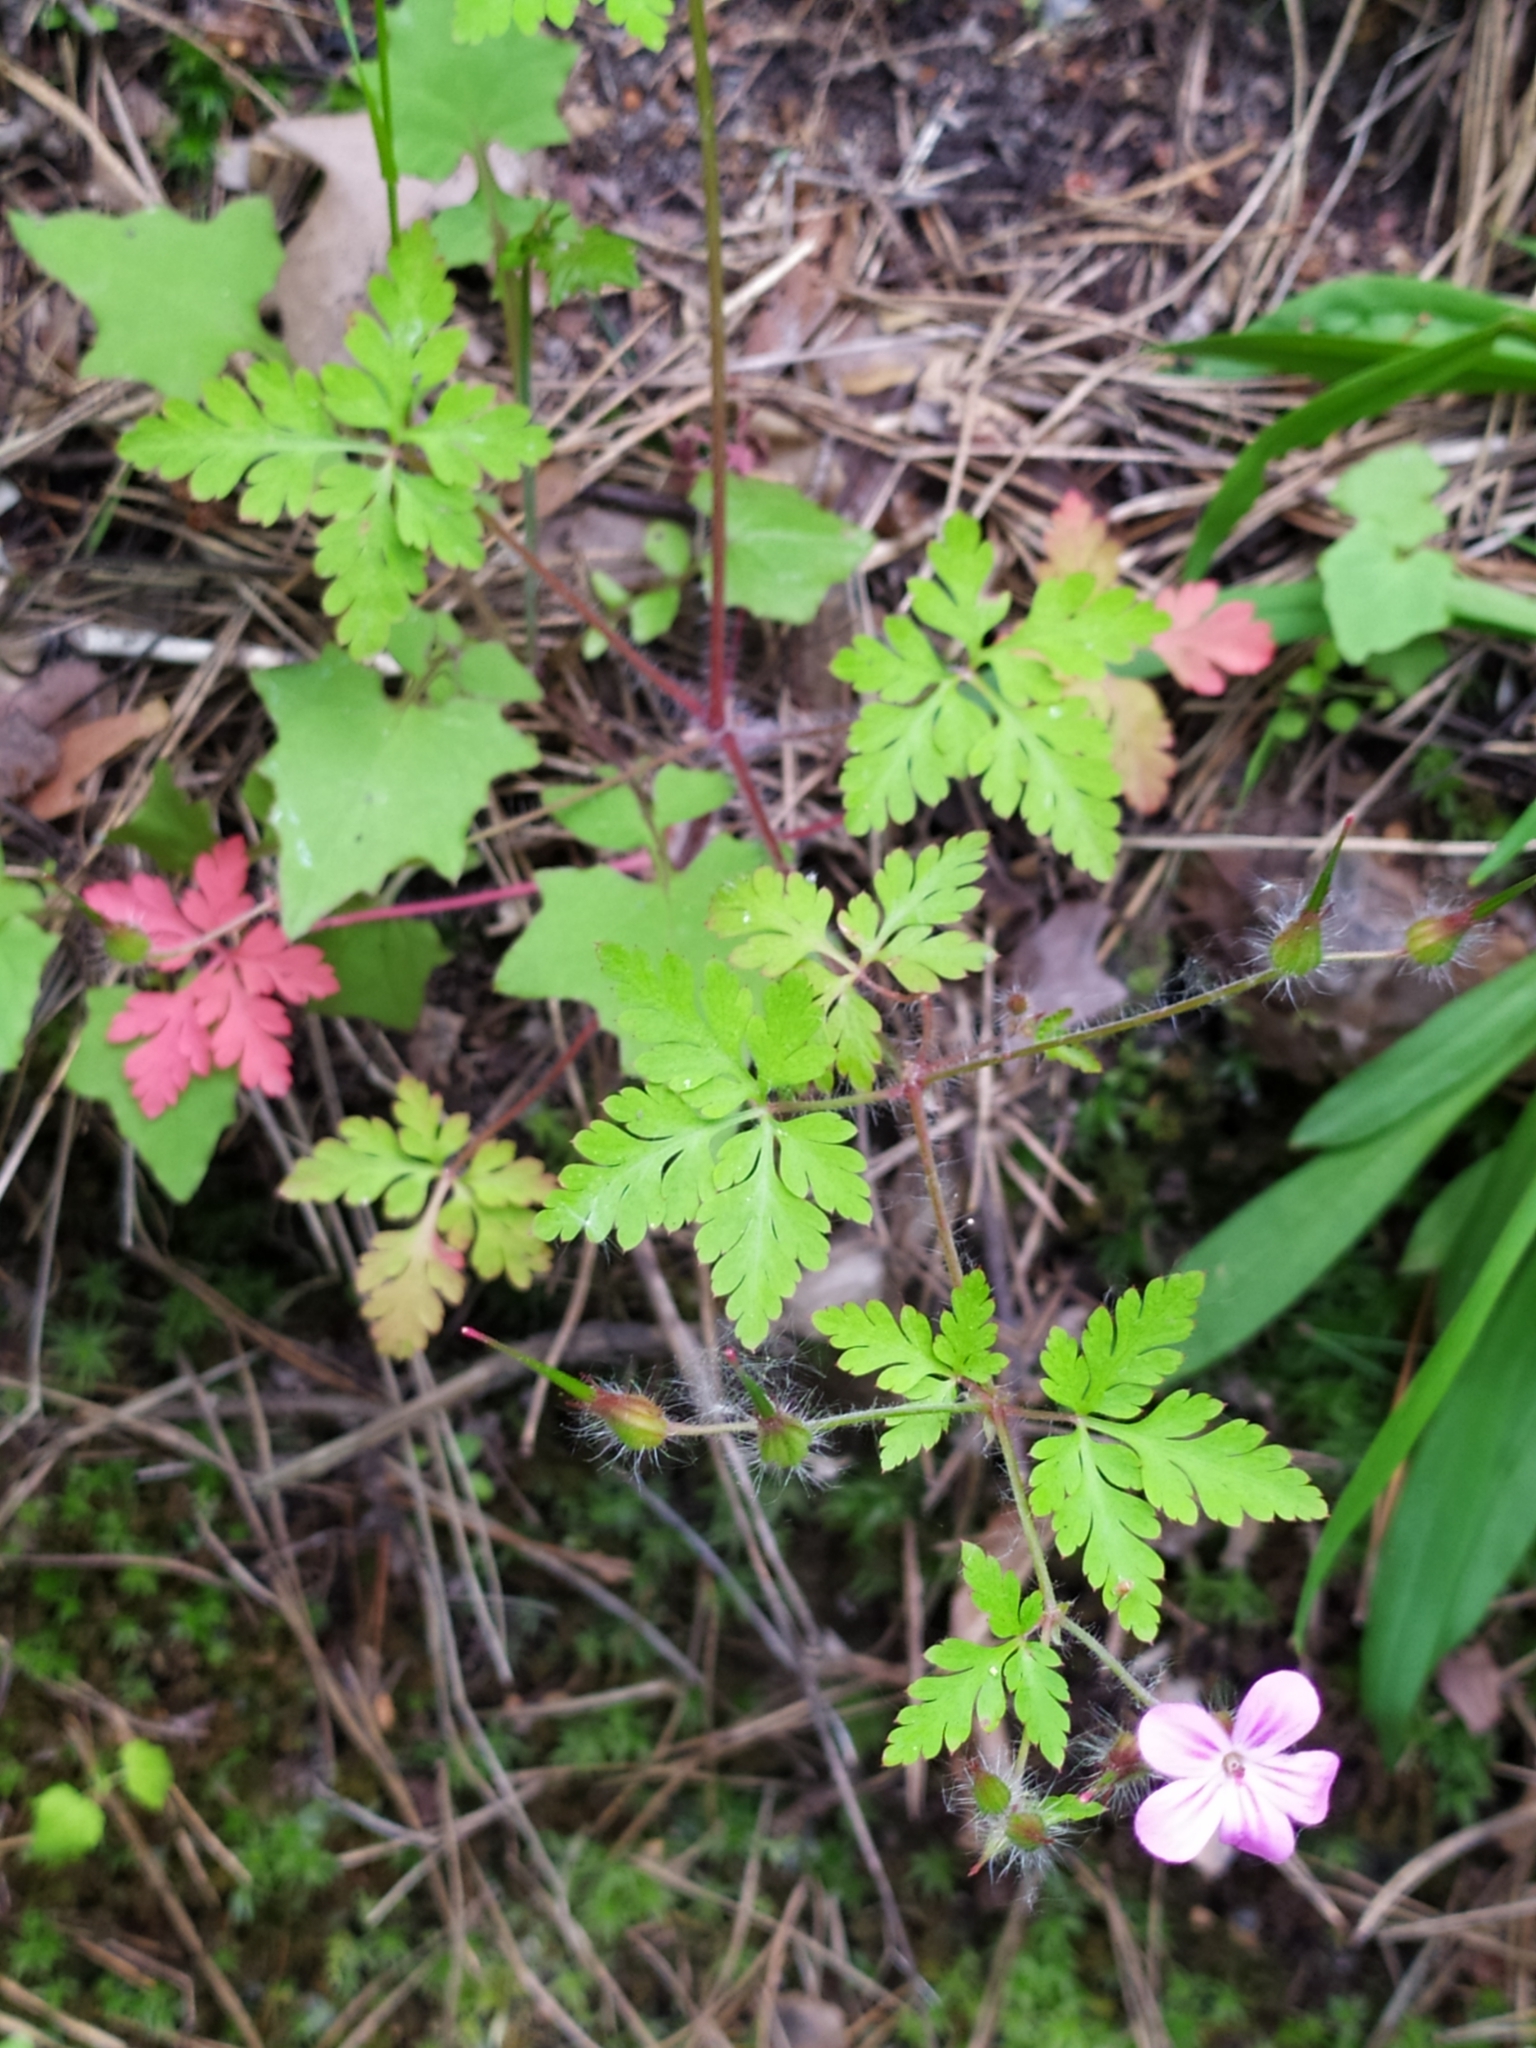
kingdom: Plantae
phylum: Tracheophyta
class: Magnoliopsida
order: Geraniales
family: Geraniaceae
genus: Geranium
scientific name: Geranium robertianum
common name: Herb-robert
